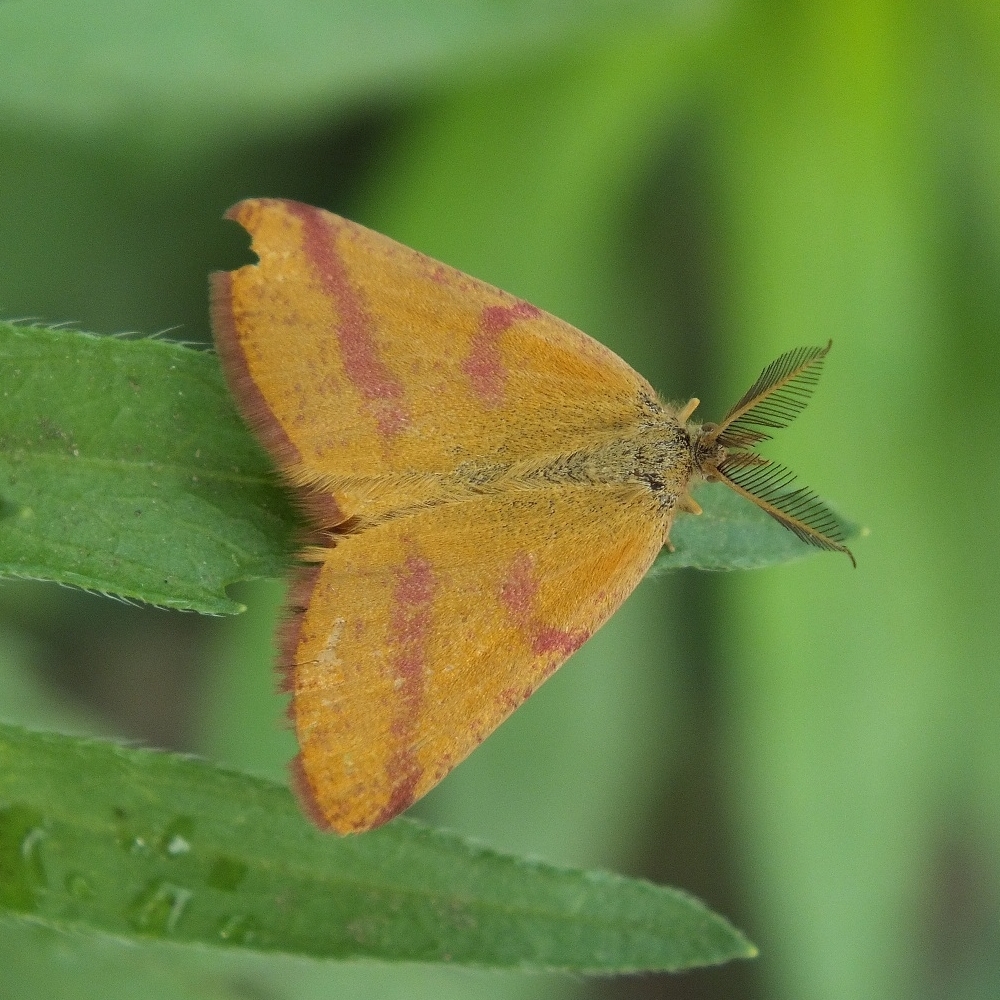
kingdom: Animalia
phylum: Arthropoda
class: Insecta
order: Lepidoptera
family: Geometridae
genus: Lythria
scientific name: Lythria purpuraria
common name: Purple-barred yellow
